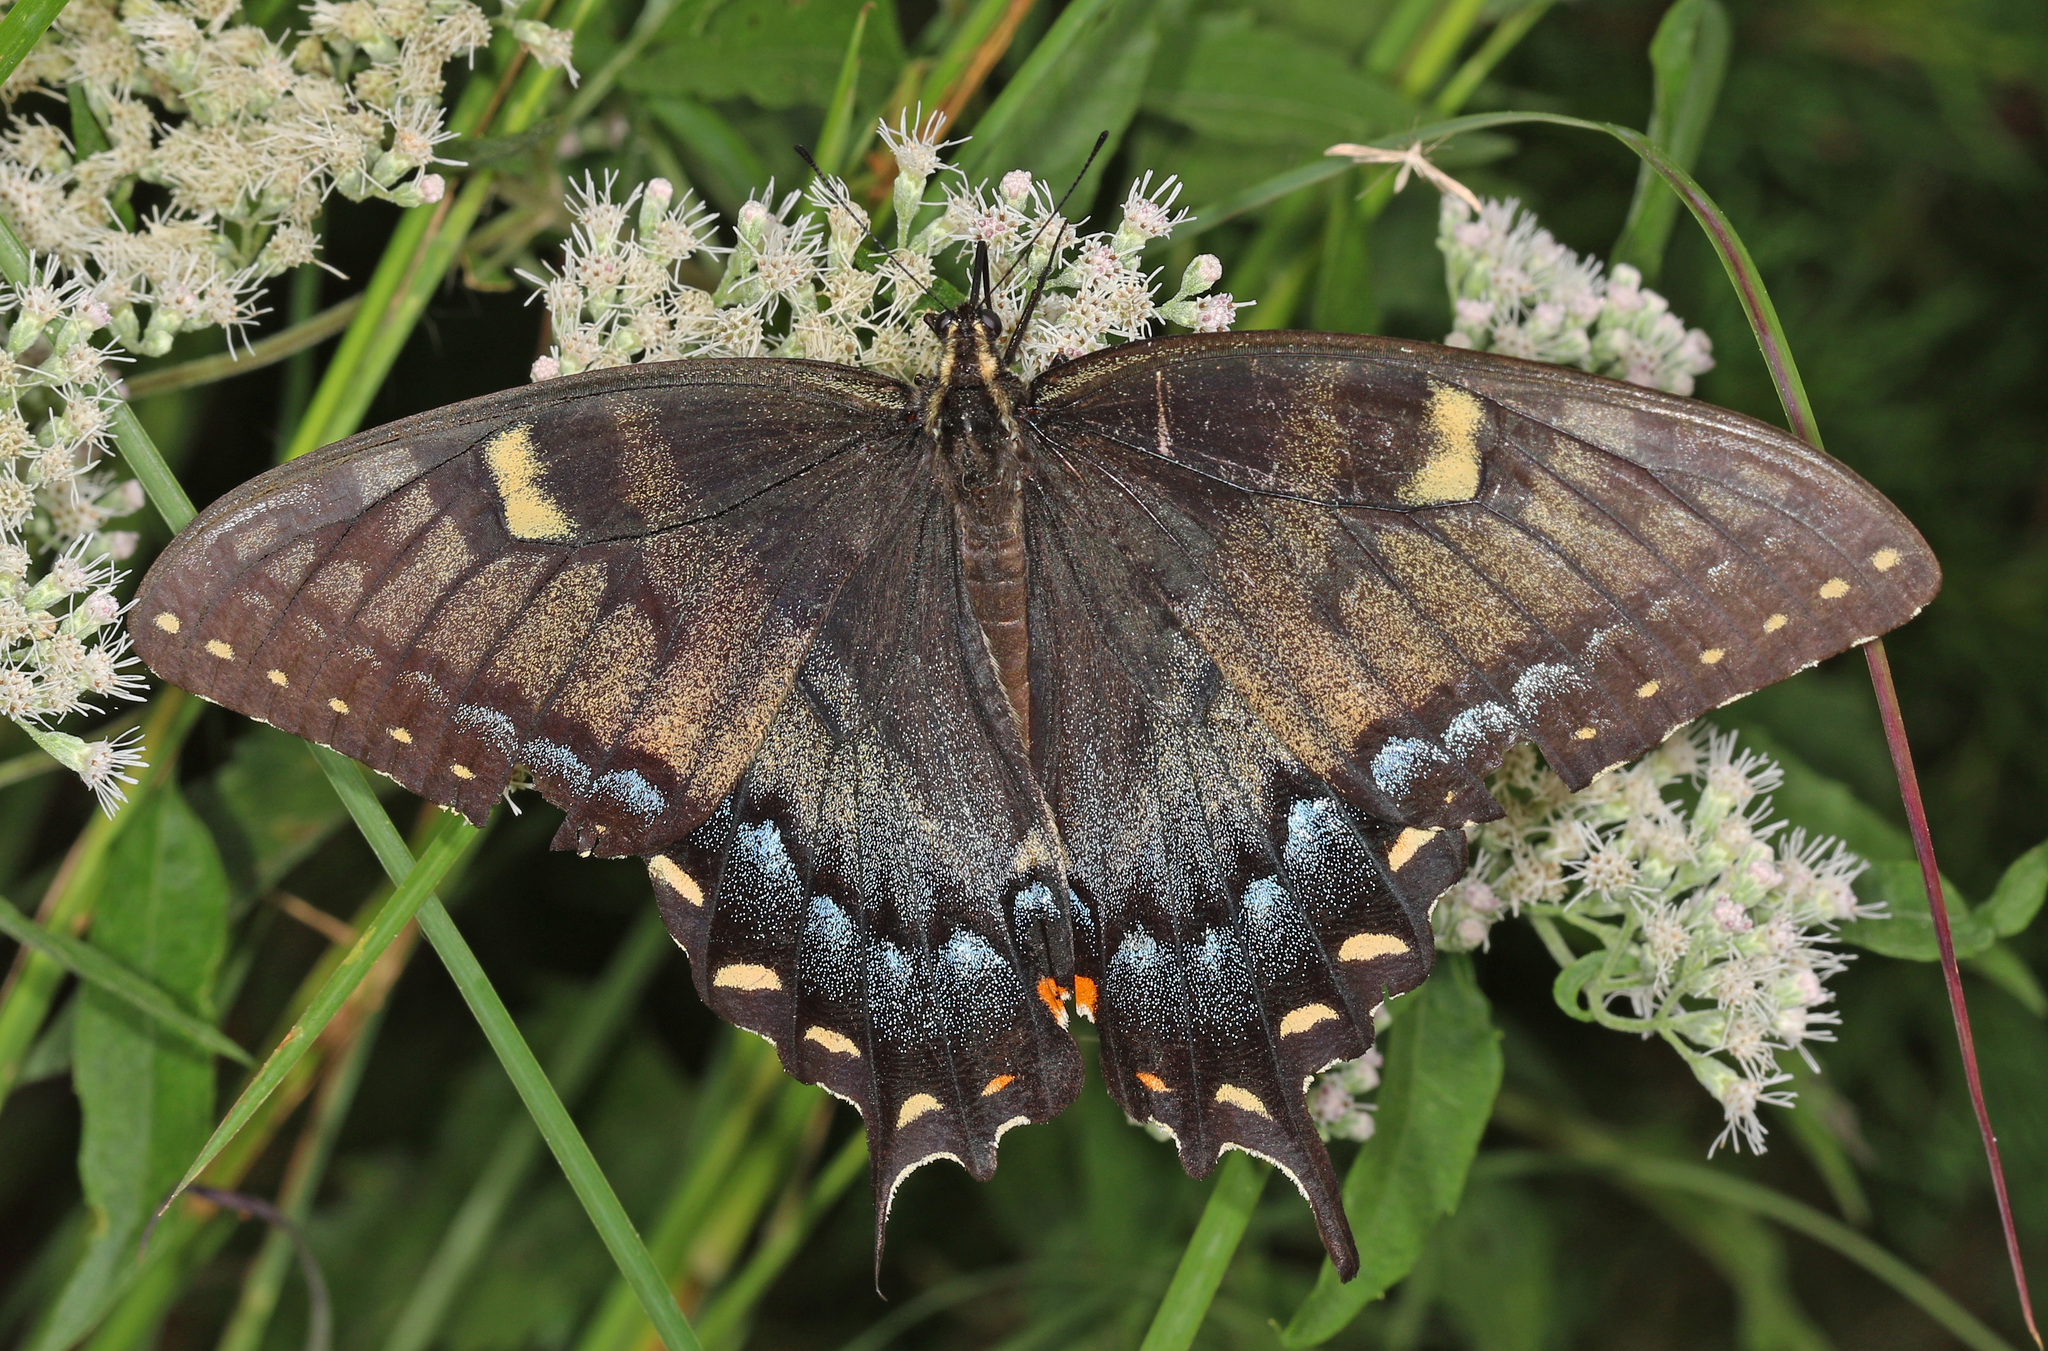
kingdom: Animalia
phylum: Arthropoda
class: Insecta
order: Lepidoptera
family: Papilionidae
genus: Papilio
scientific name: Papilio glaucus
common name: Tiger swallowtail
